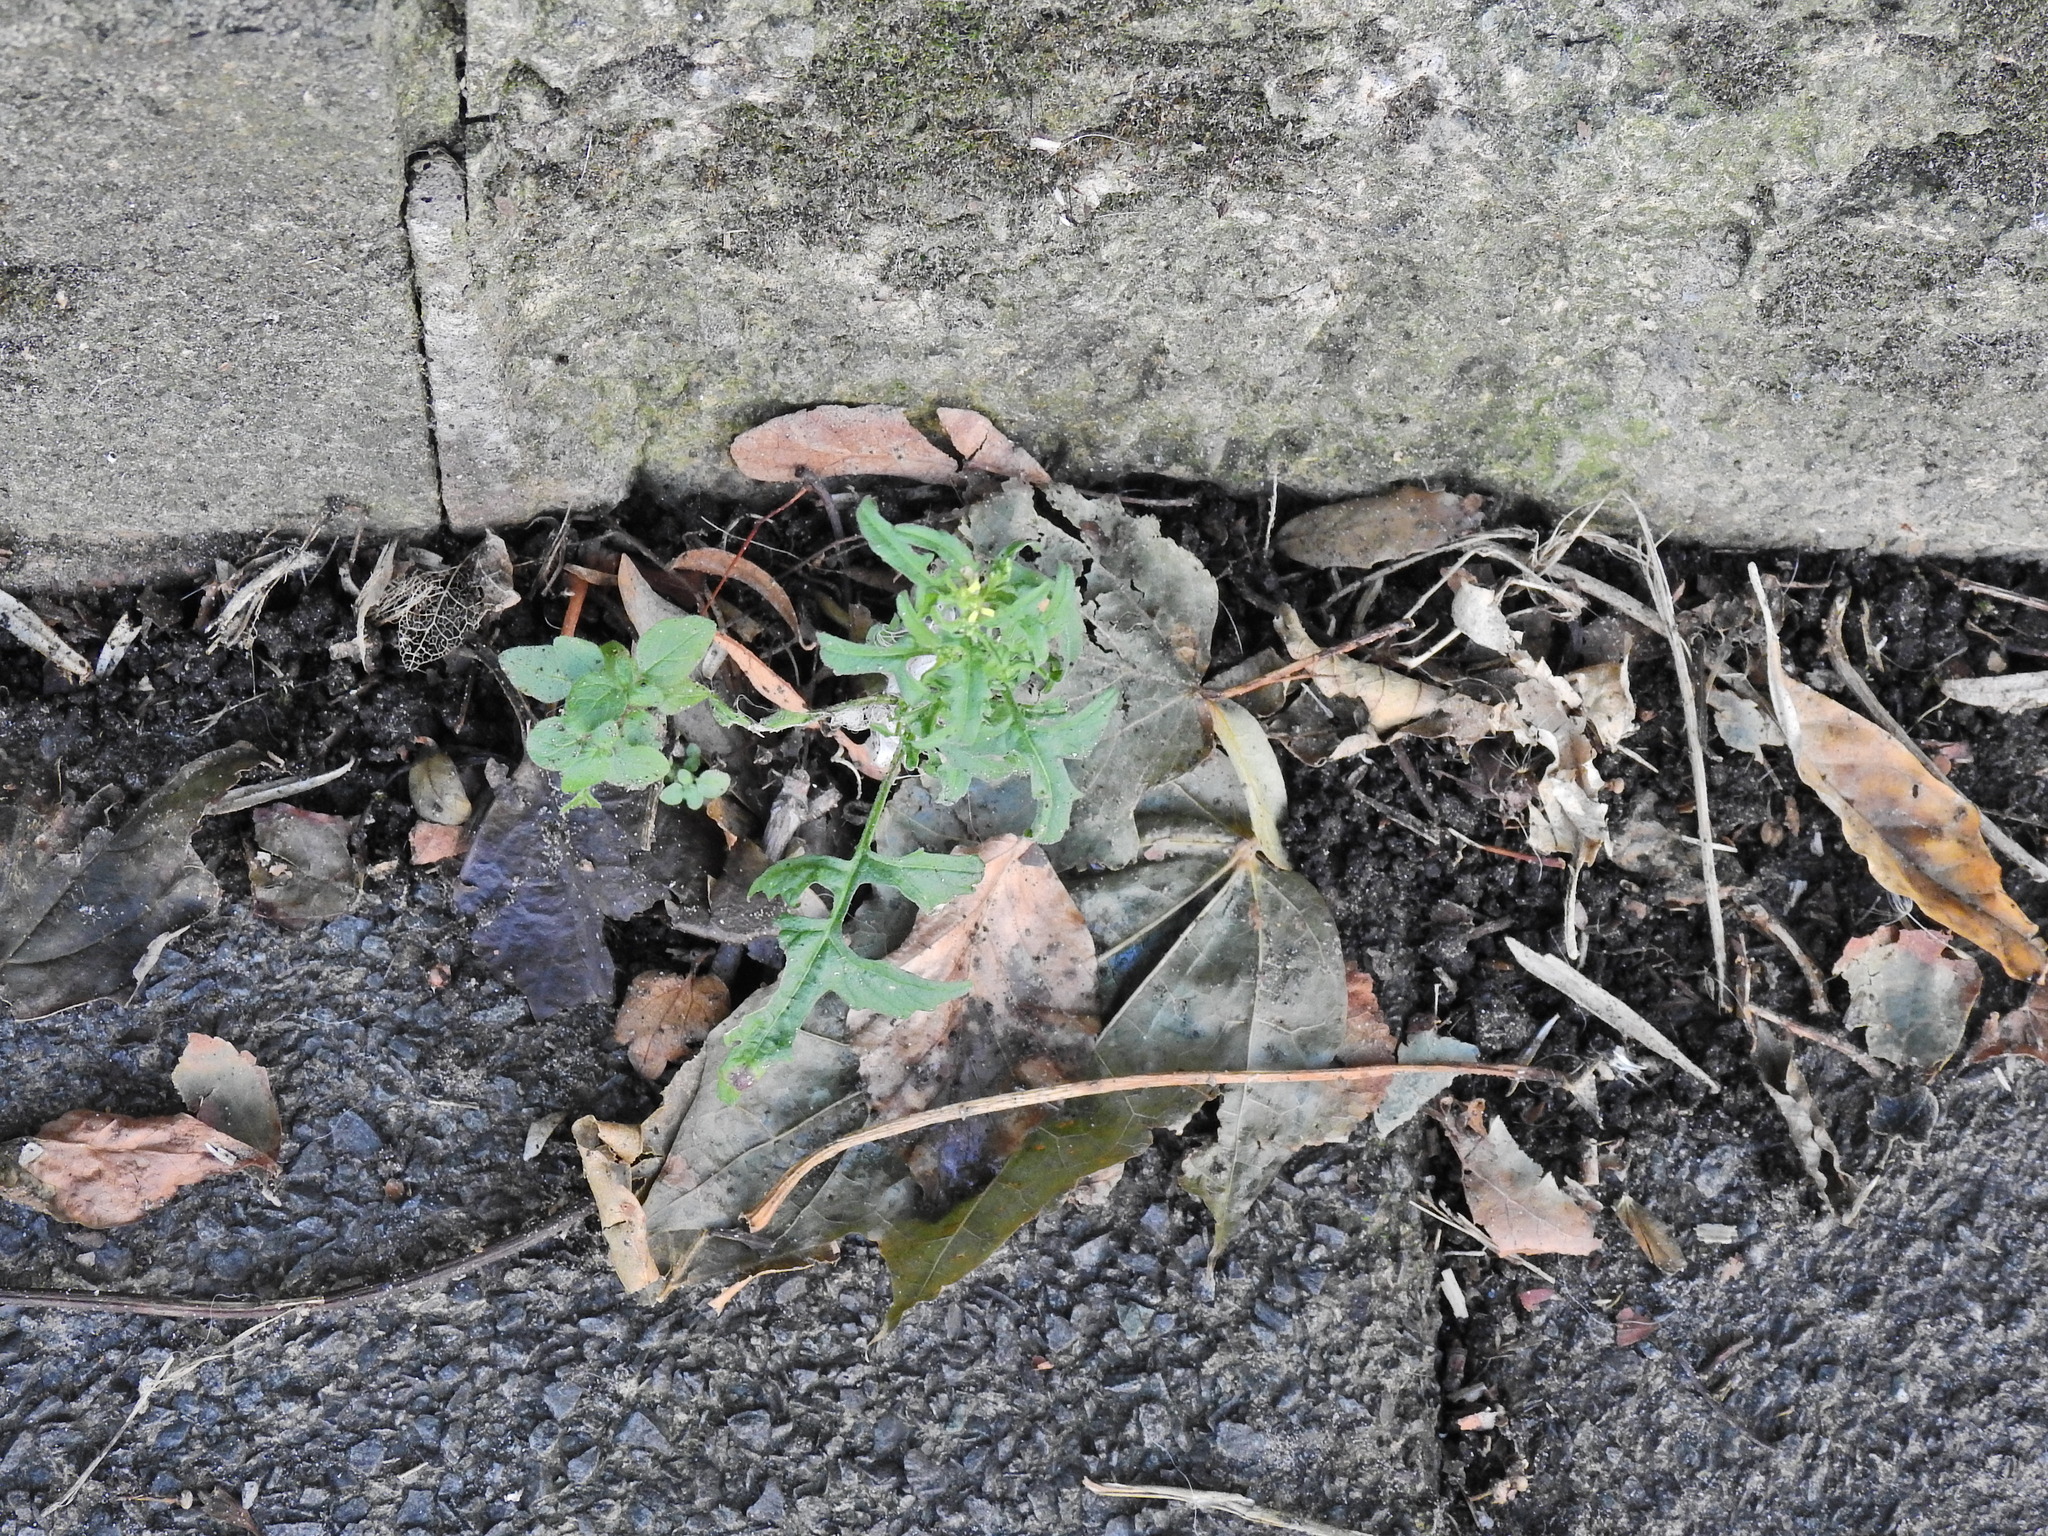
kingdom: Plantae
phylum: Tracheophyta
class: Magnoliopsida
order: Brassicales
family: Brassicaceae
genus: Sisymbrium
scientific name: Sisymbrium officinale
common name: Hedge mustard
